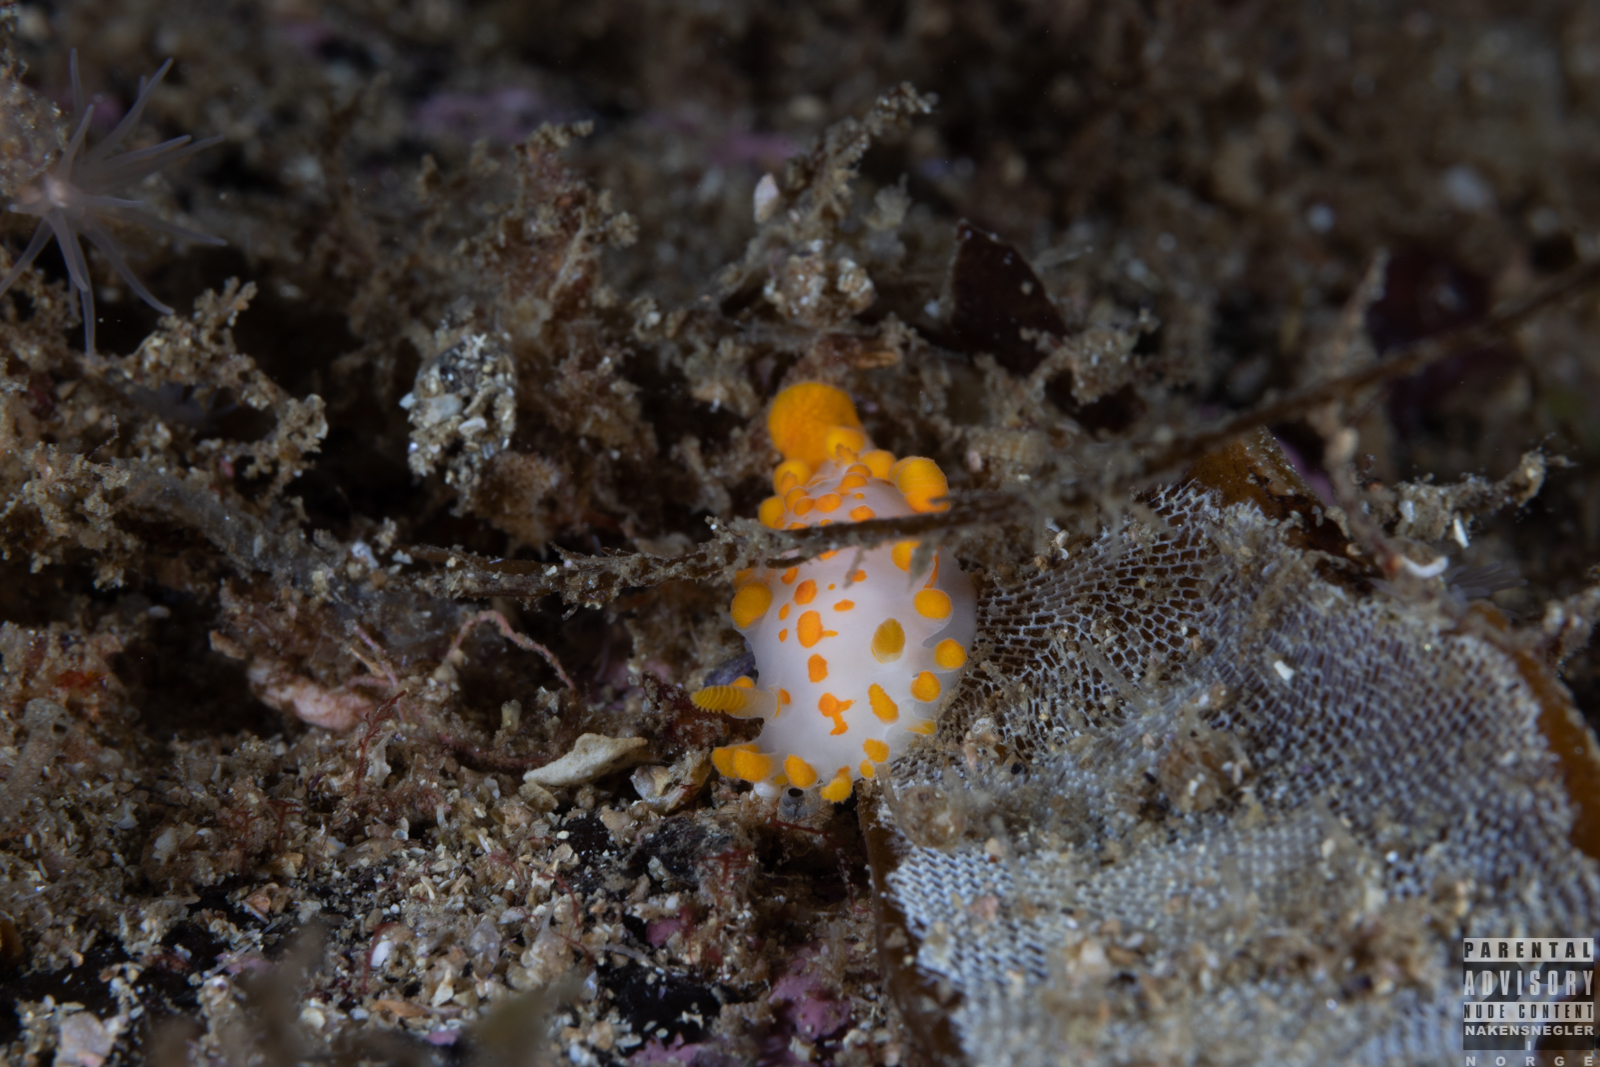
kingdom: Animalia
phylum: Mollusca
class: Gastropoda
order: Nudibranchia
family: Polyceridae
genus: Limacia
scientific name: Limacia clavigera
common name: Orange-clubbed sea slug
